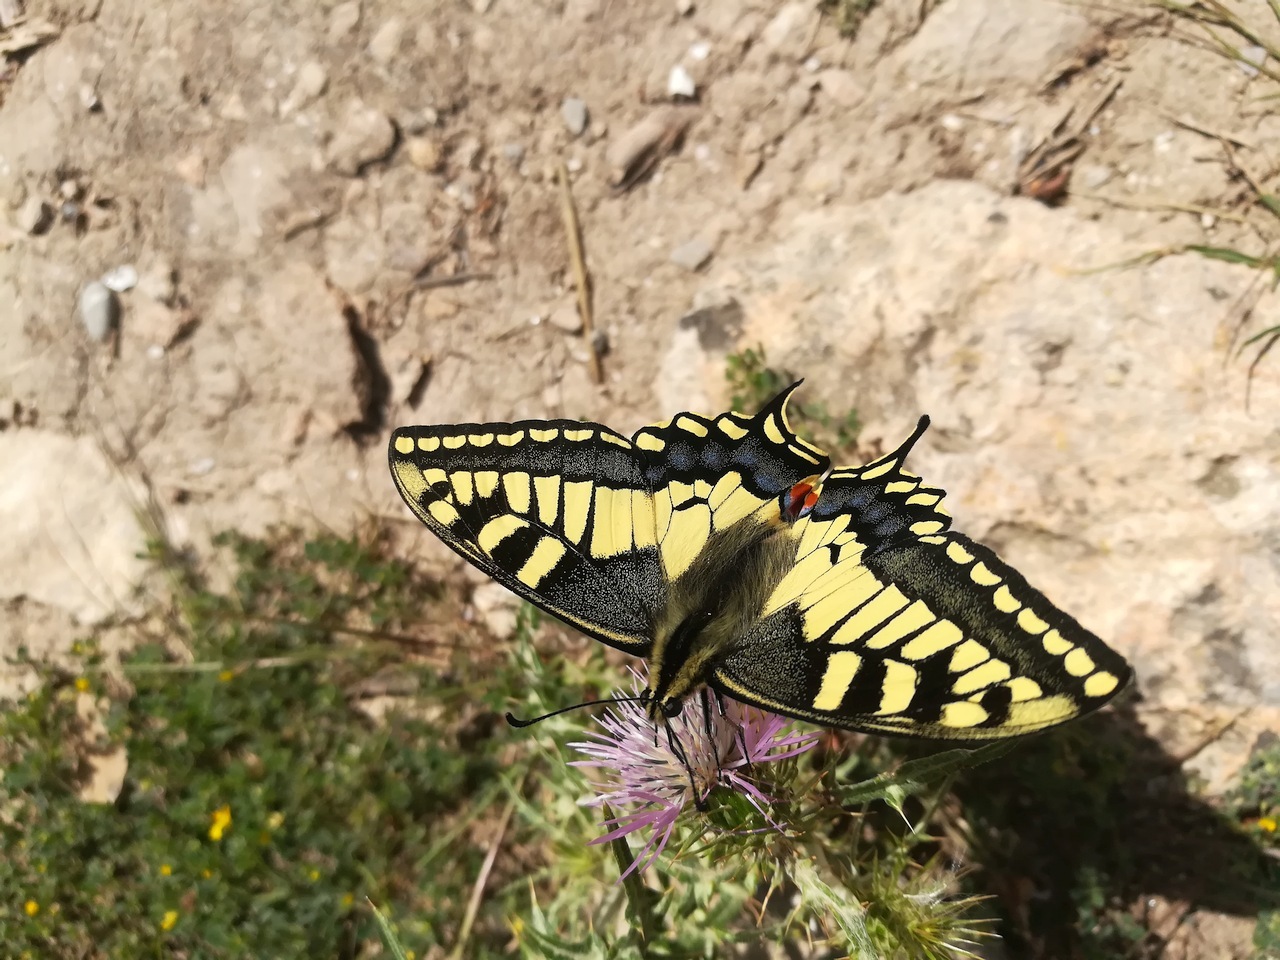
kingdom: Animalia
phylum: Arthropoda
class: Insecta
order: Lepidoptera
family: Papilionidae
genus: Papilio
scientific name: Papilio machaon
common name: Swallowtail
